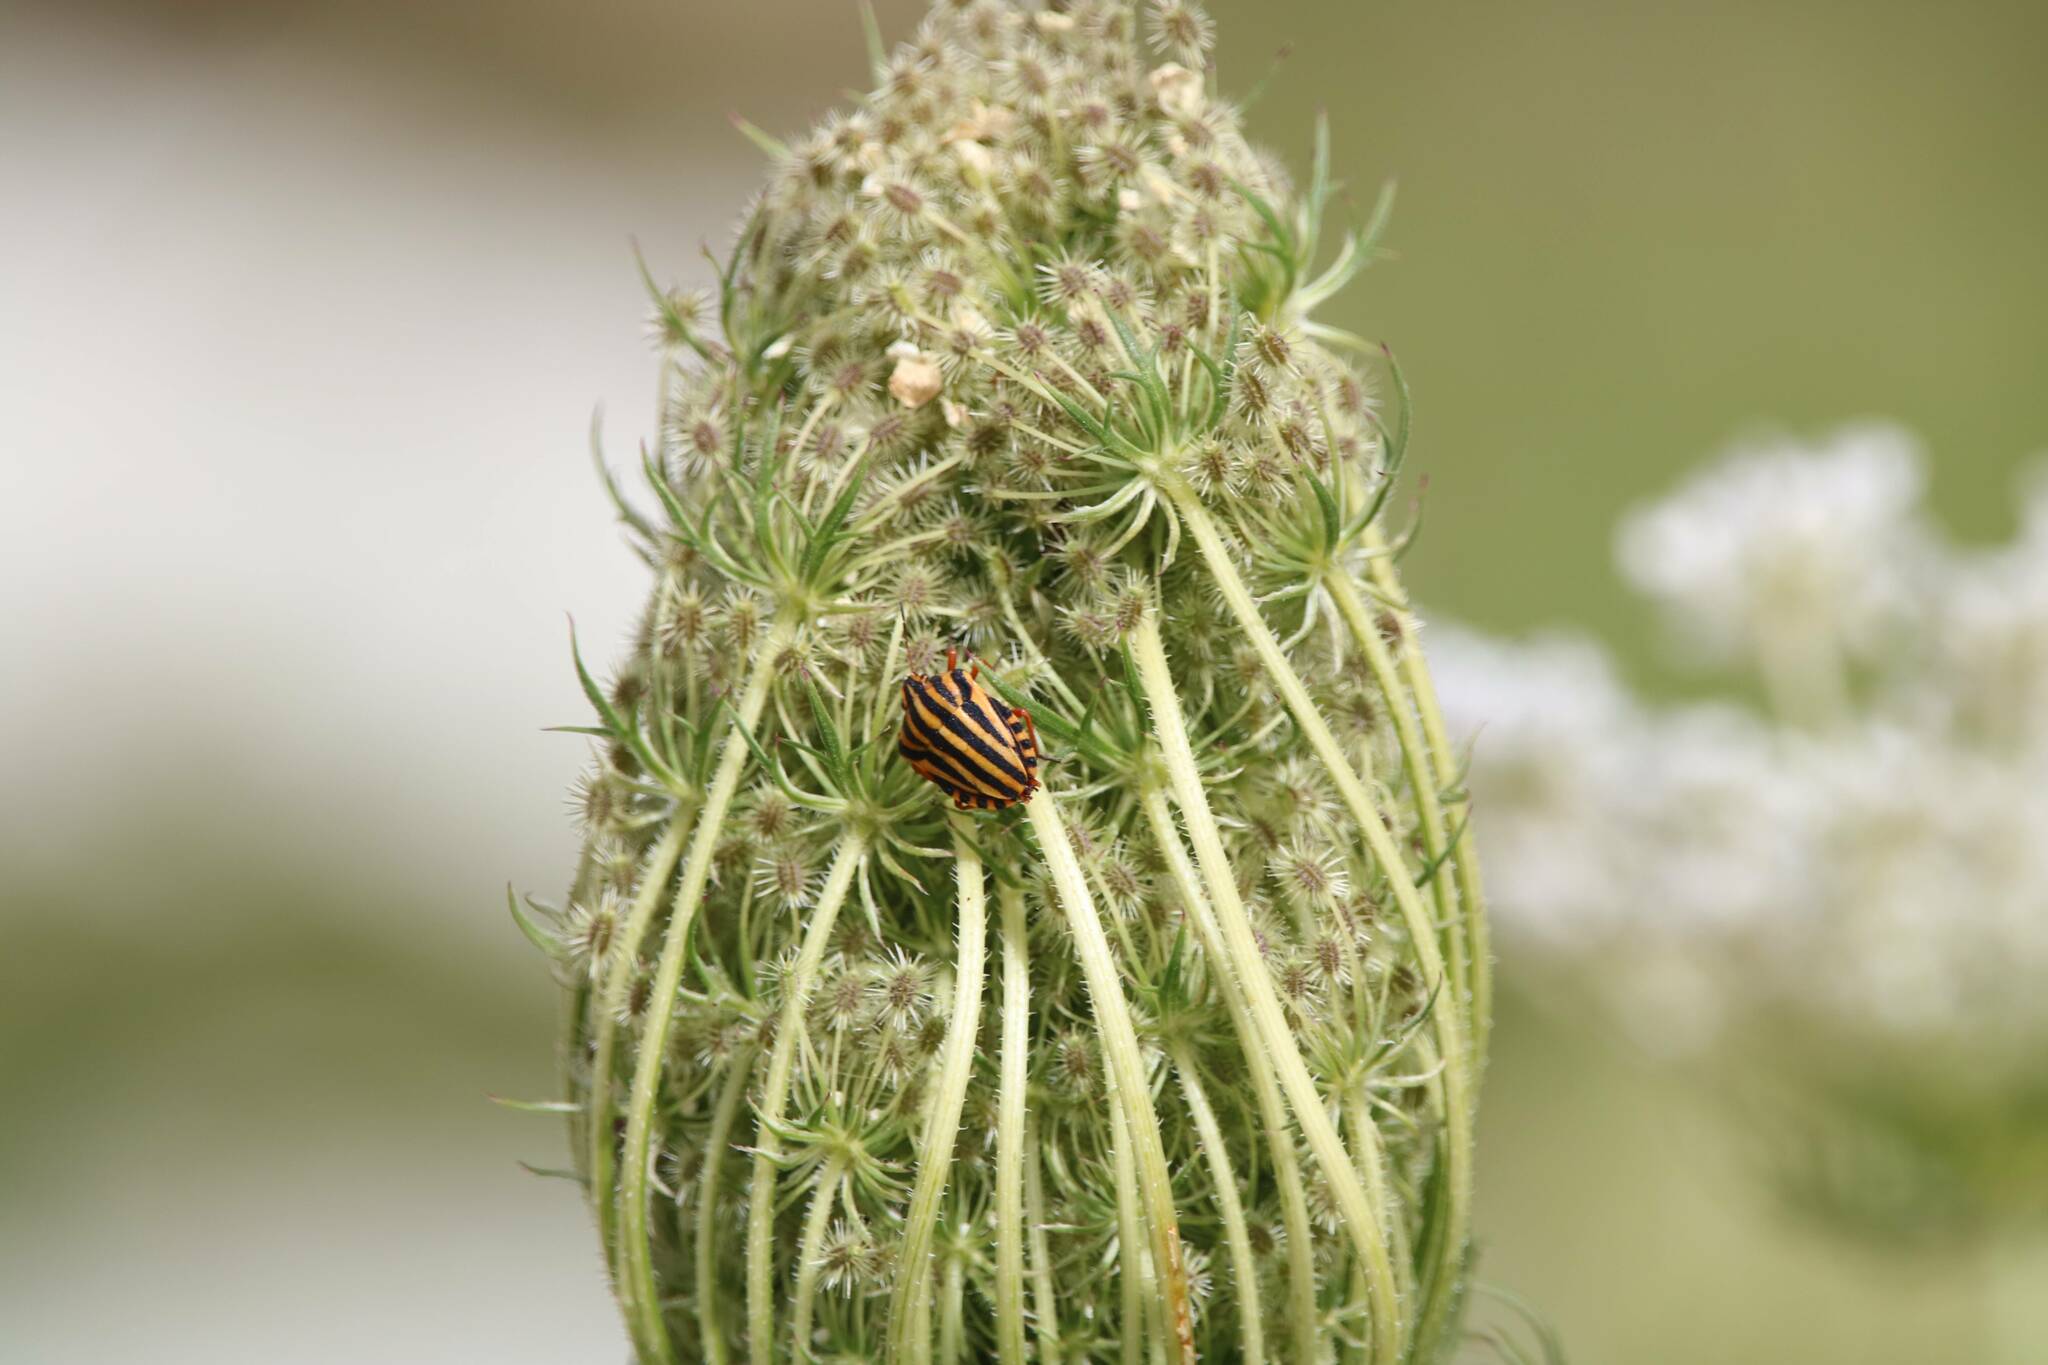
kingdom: Plantae
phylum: Tracheophyta
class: Magnoliopsida
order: Apiales
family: Apiaceae
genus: Daucus
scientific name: Daucus carota
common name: Wild carrot
